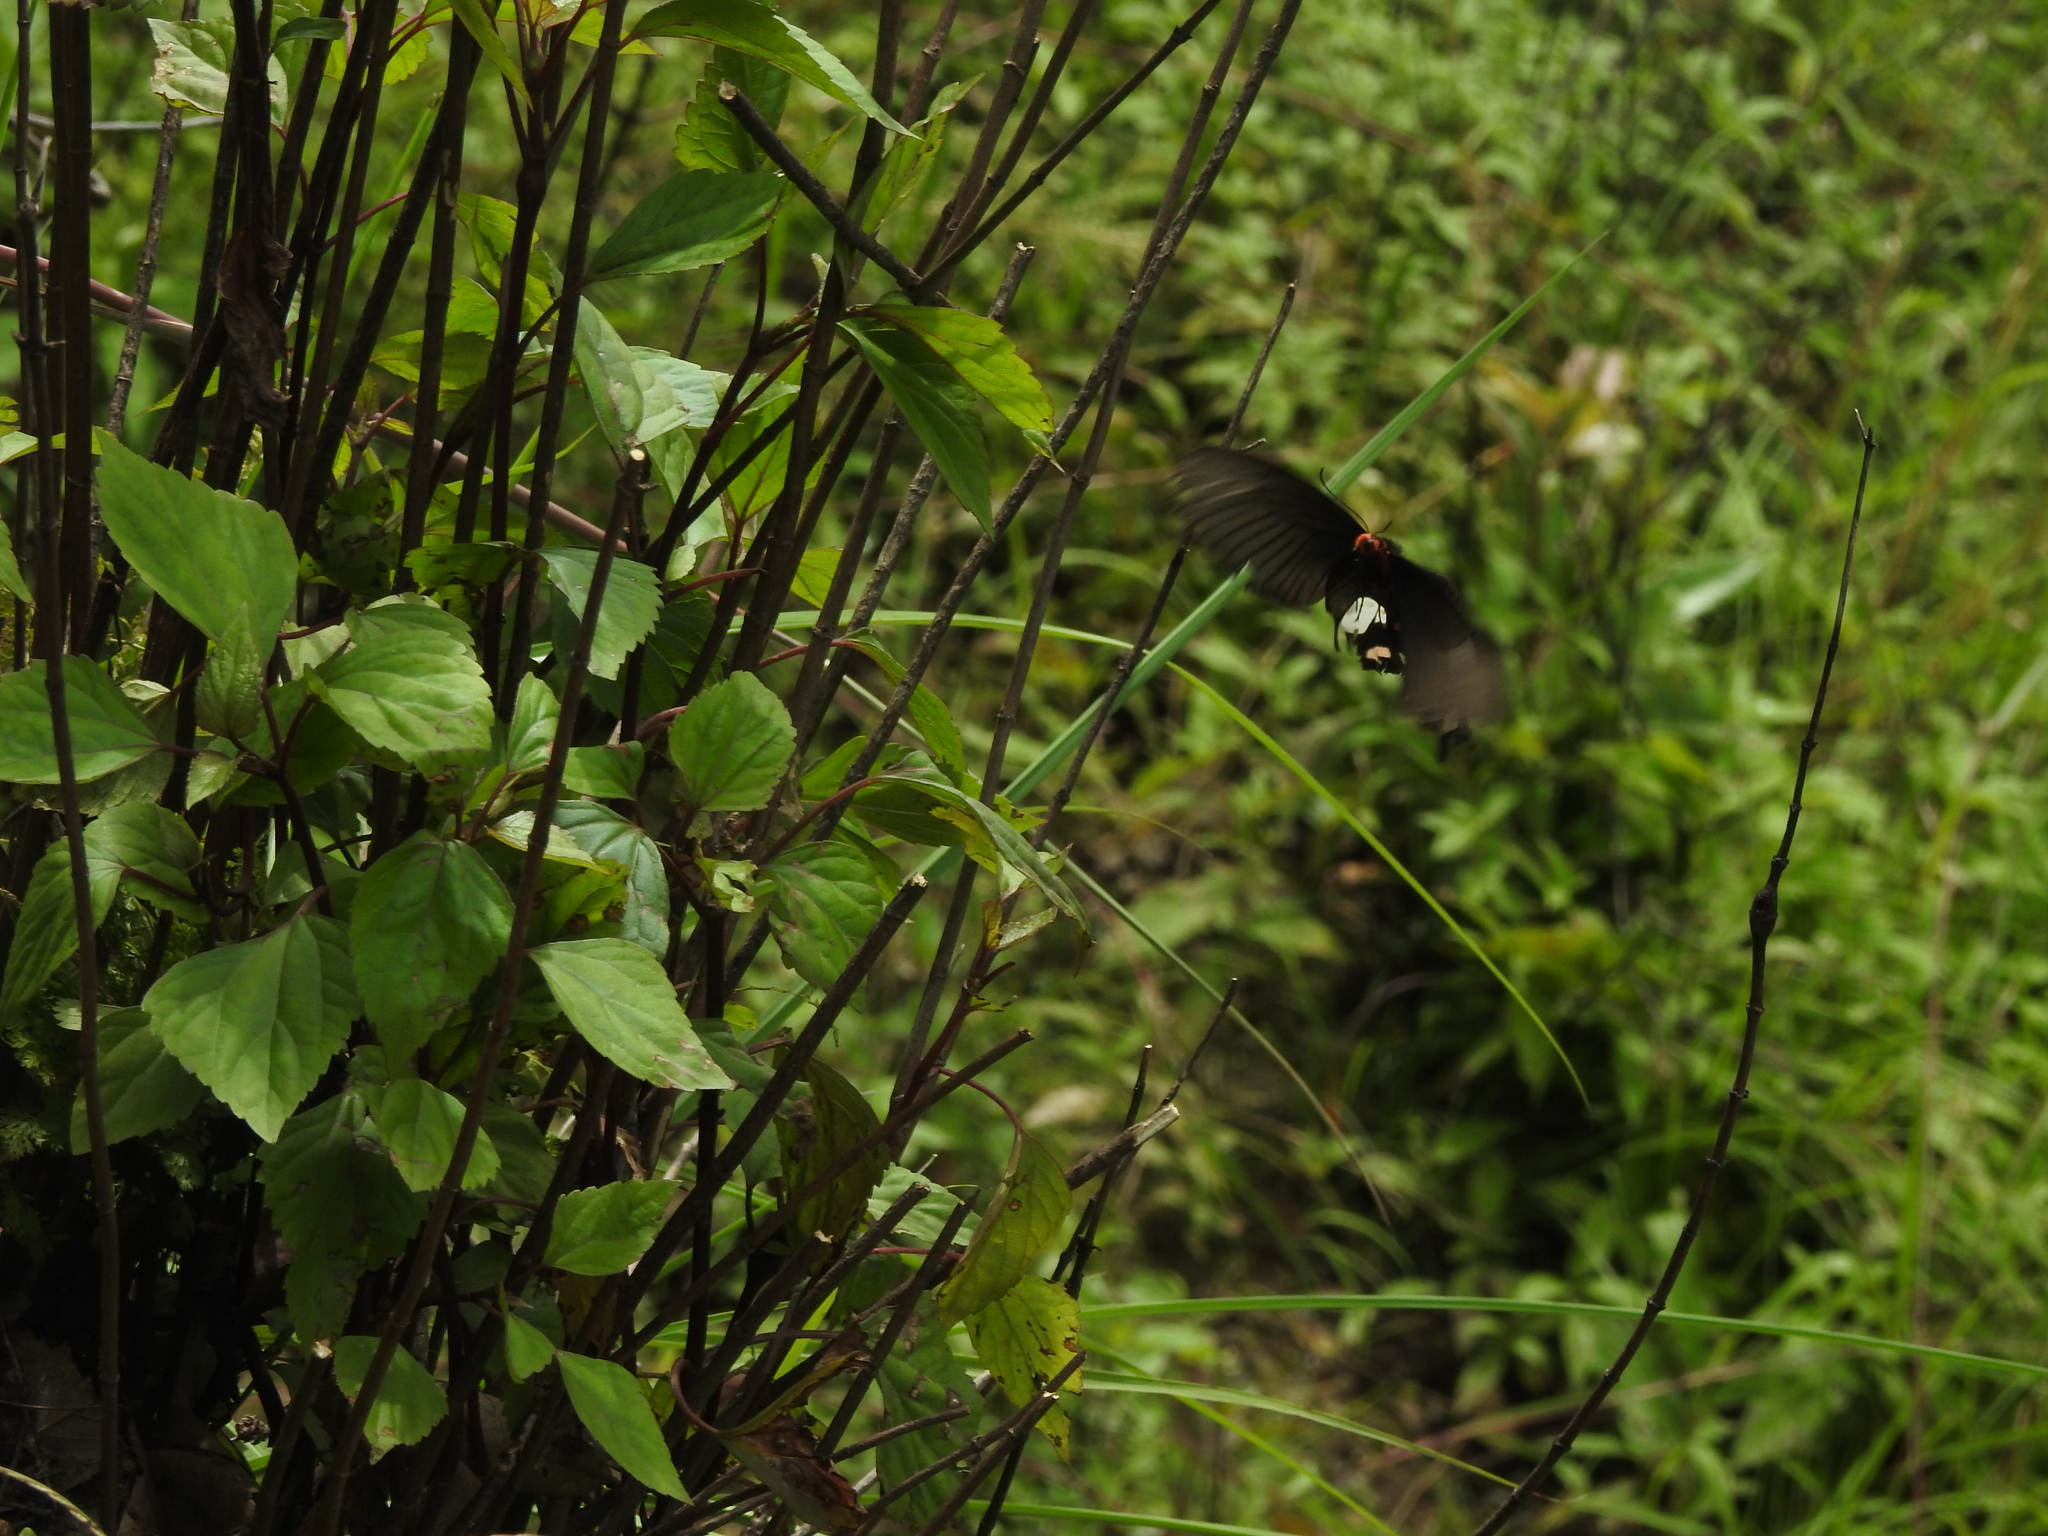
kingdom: Animalia
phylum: Arthropoda
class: Insecta
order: Lepidoptera
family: Papilionidae
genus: Byasa
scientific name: Byasa polyeuctes
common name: Common windmill
